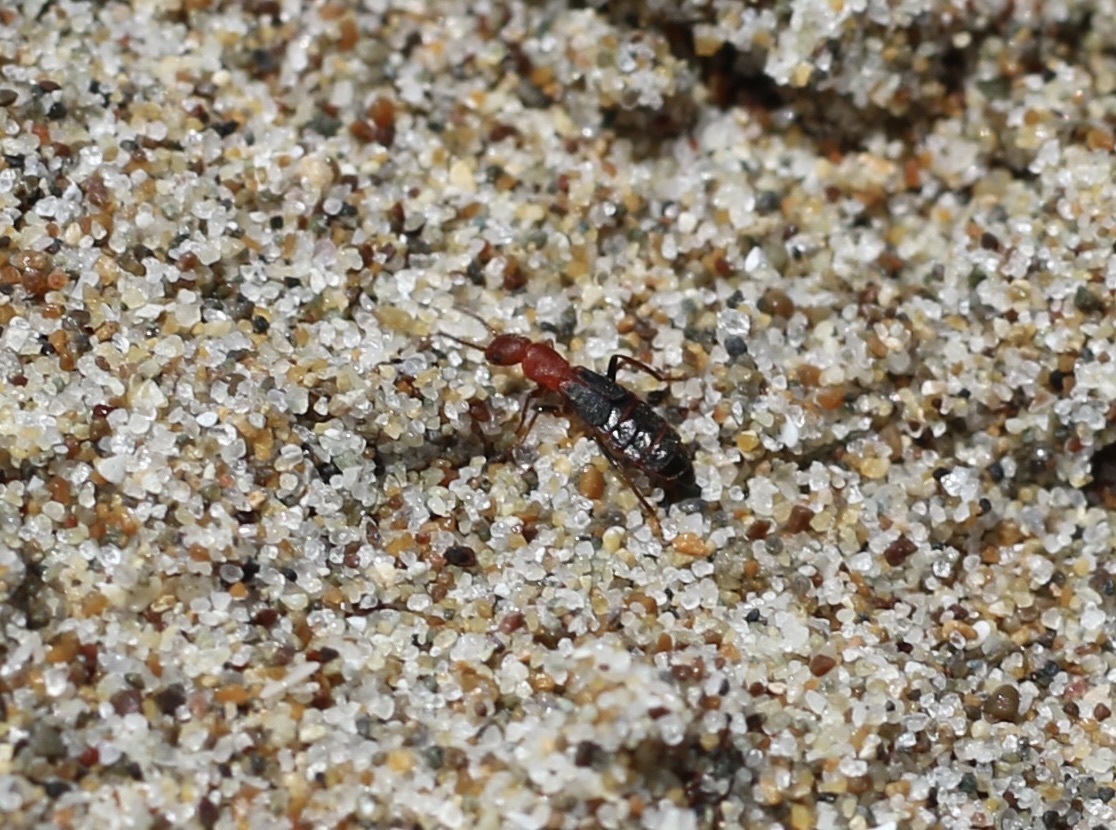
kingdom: Animalia
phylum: Arthropoda
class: Insecta
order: Coleoptera
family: Melyridae
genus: Endeodes
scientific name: Endeodes basalis
